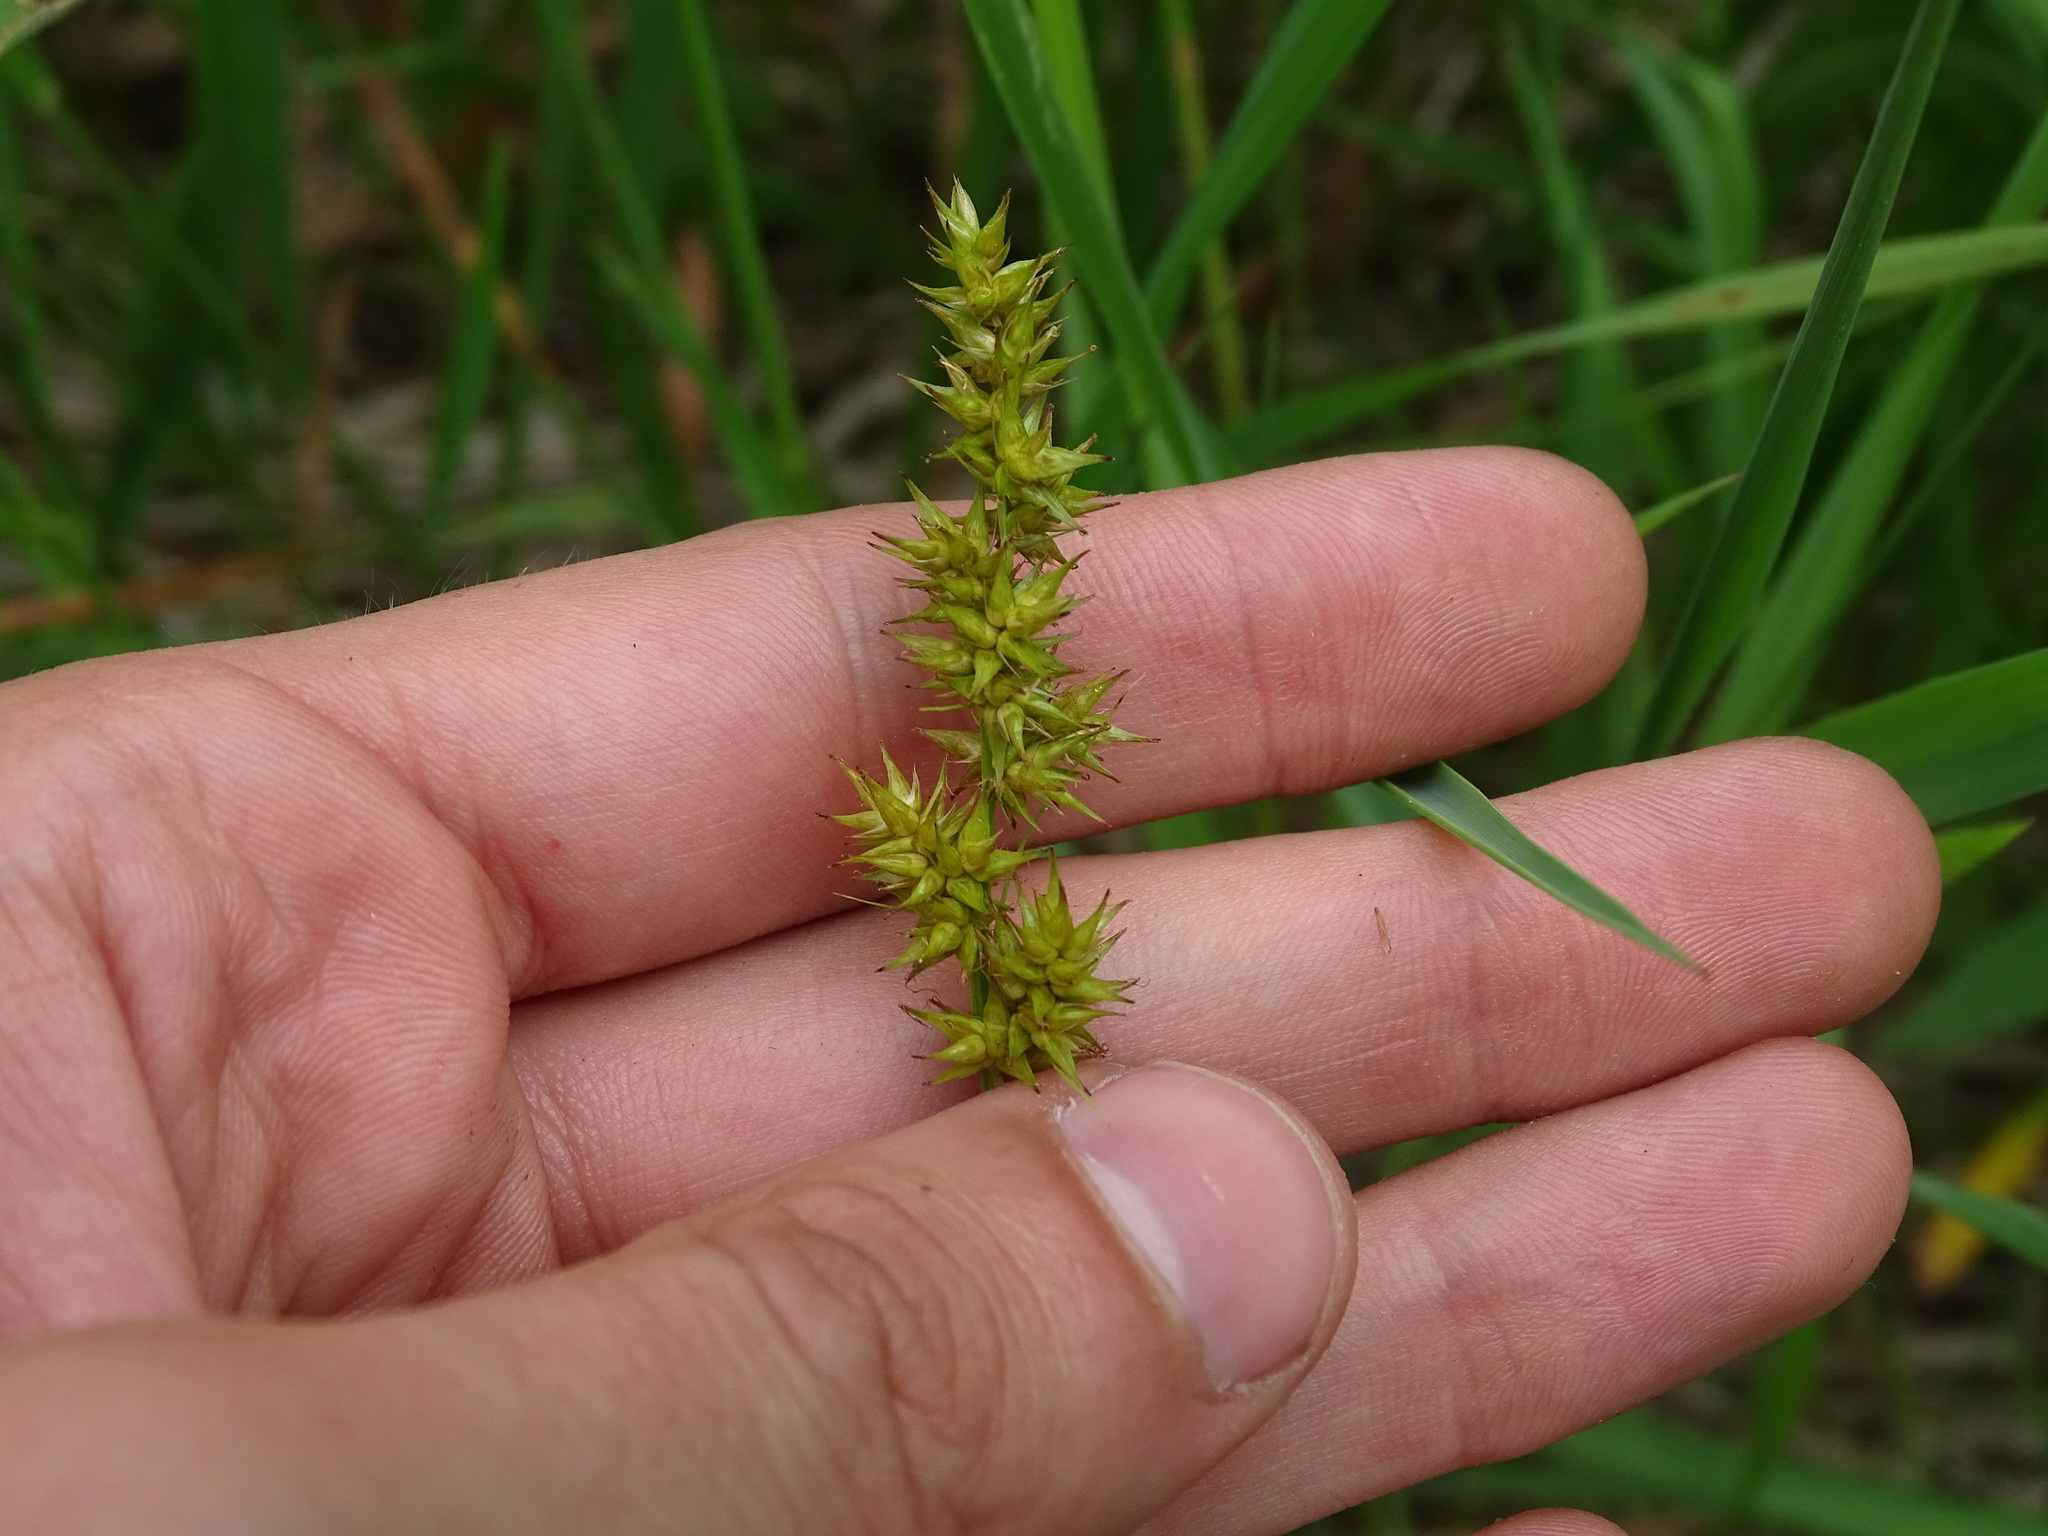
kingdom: Plantae
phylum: Tracheophyta
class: Liliopsida
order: Poales
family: Cyperaceae
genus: Carex
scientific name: Carex stipata
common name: Awl-fruited sedge
